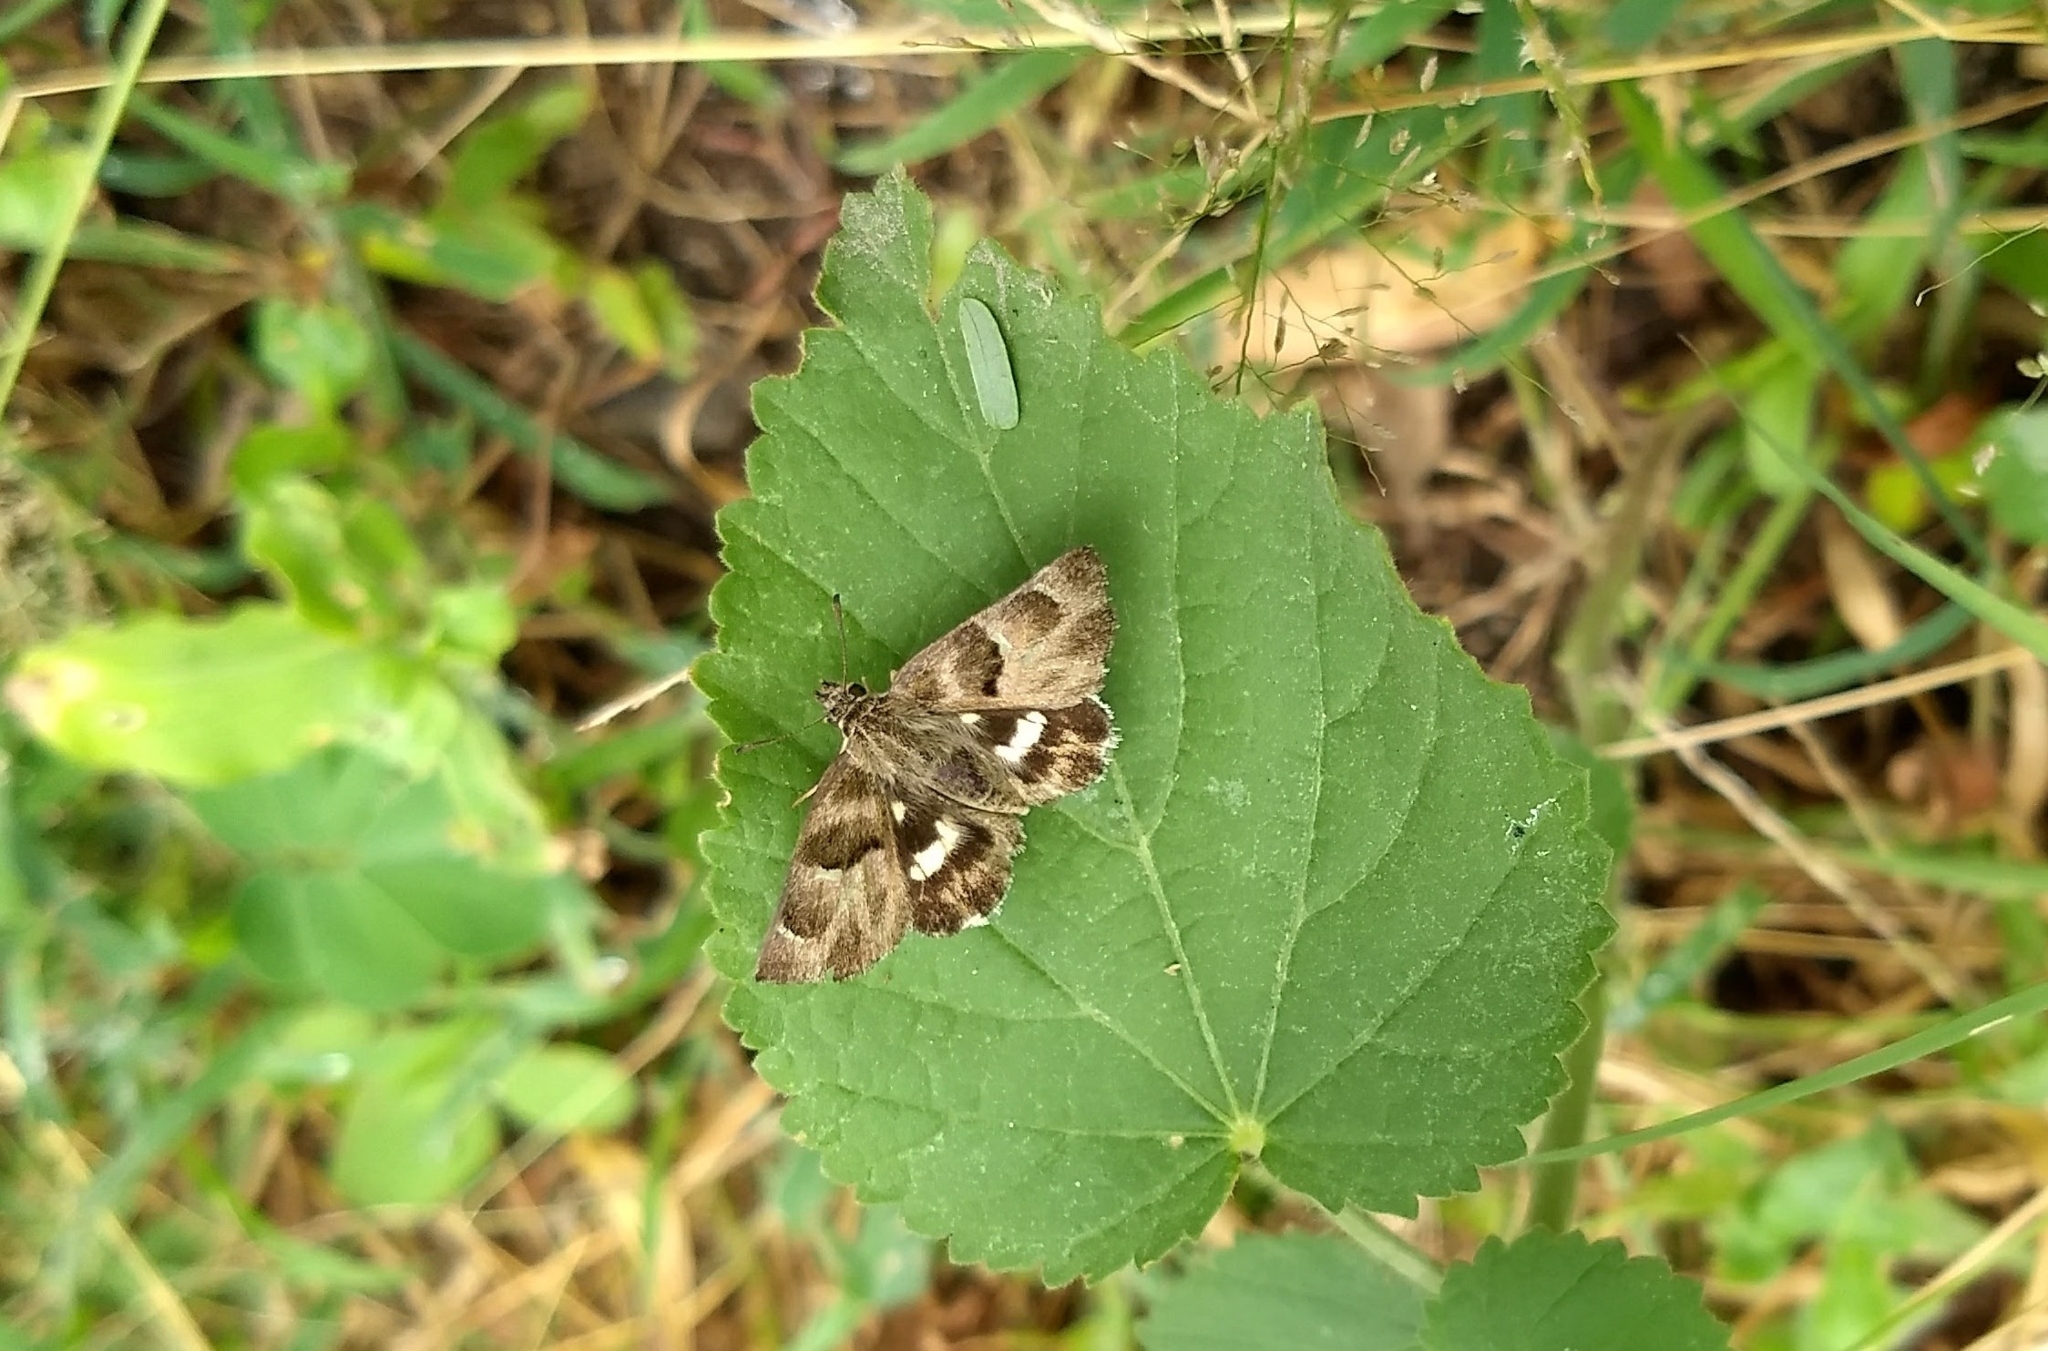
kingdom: Animalia
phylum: Arthropoda
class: Insecta
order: Lepidoptera
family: Hesperiidae
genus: Gomalia
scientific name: Gomalia elma
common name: Green-marbled skipper
